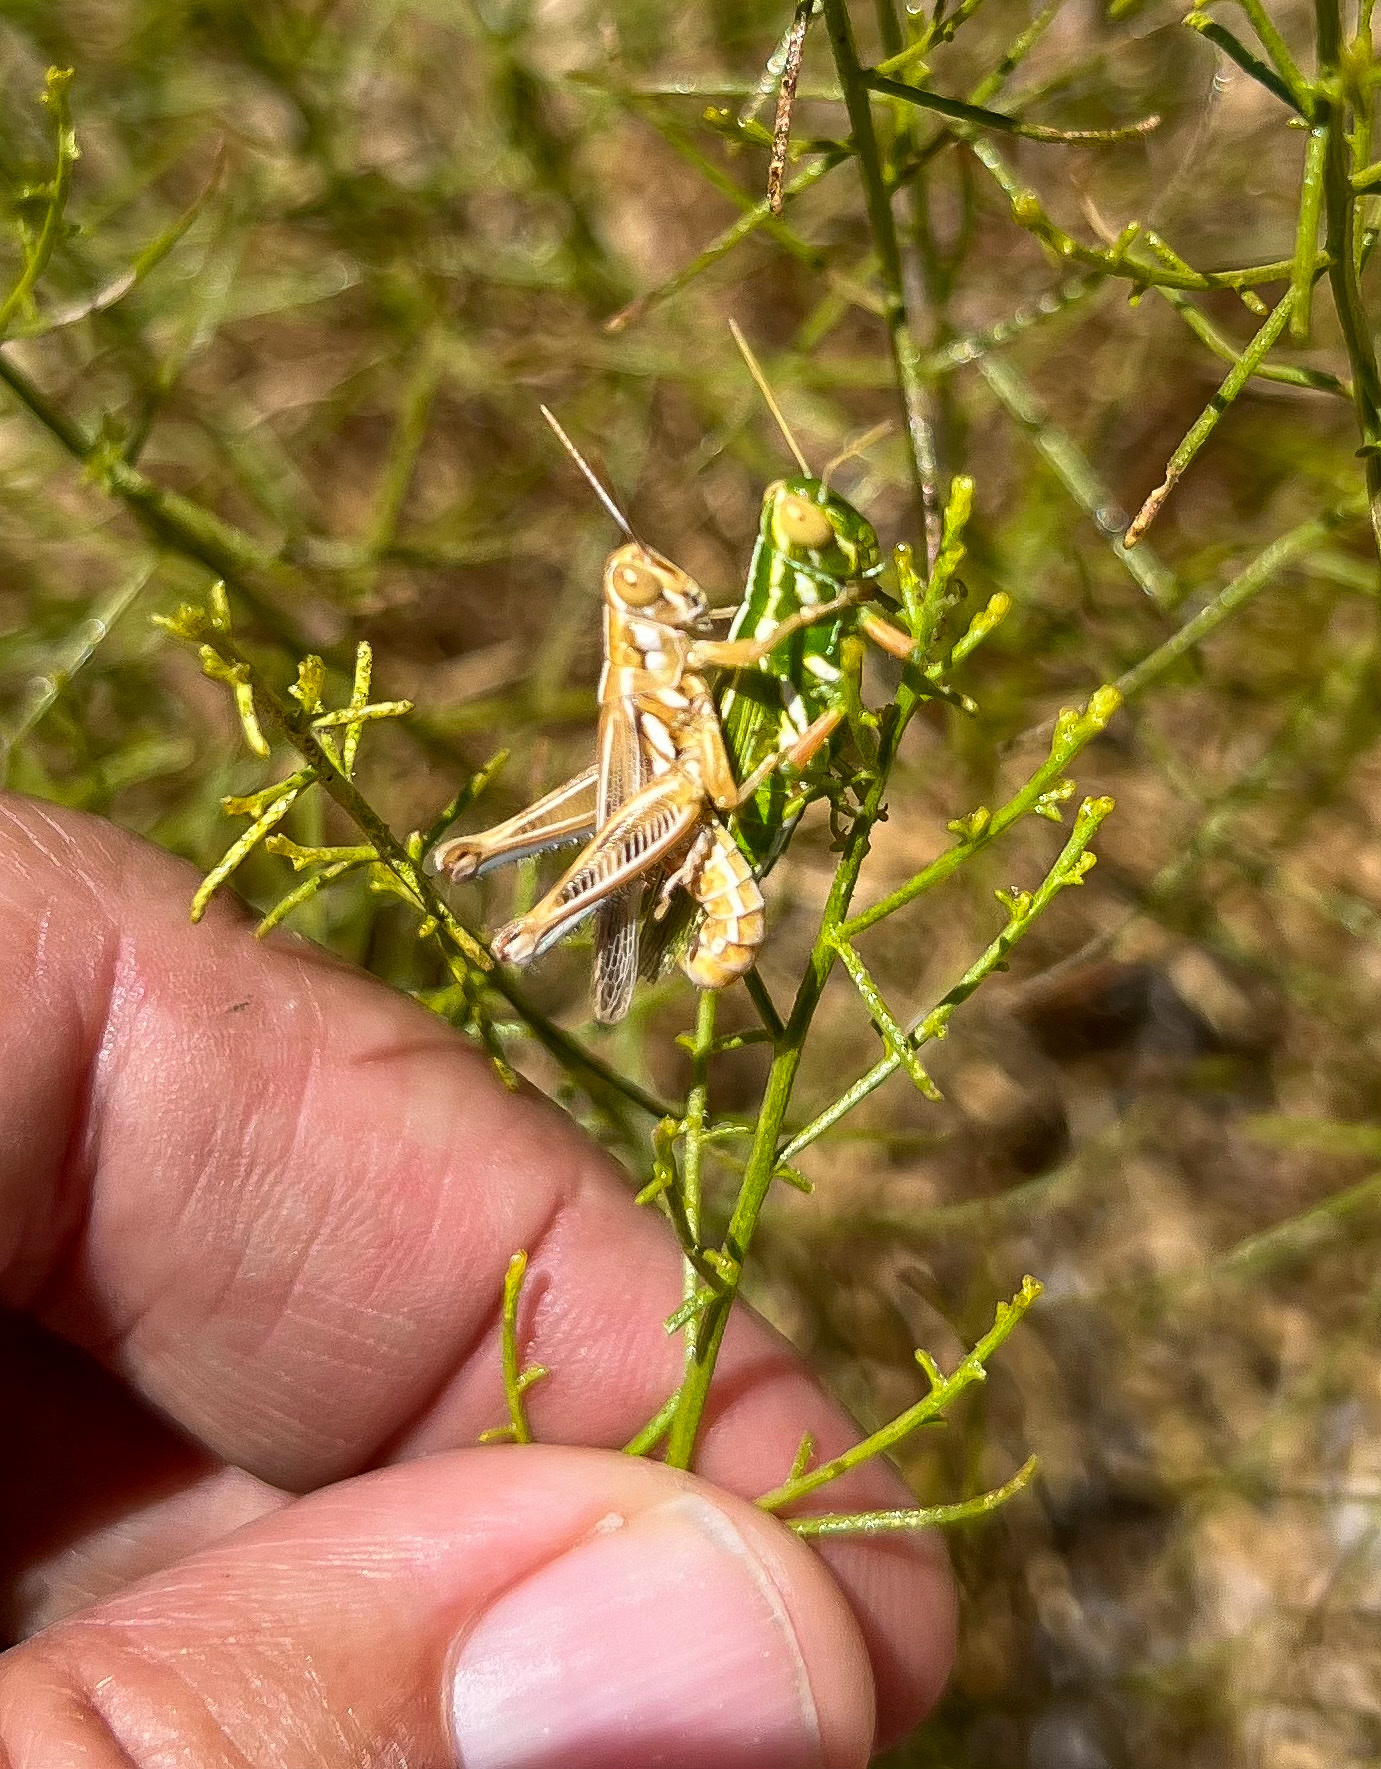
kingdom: Animalia
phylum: Arthropoda
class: Insecta
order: Orthoptera
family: Acrididae
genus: Hesperotettix
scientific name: Hesperotettix viridis
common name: Meadow purple-striped grasshopper
